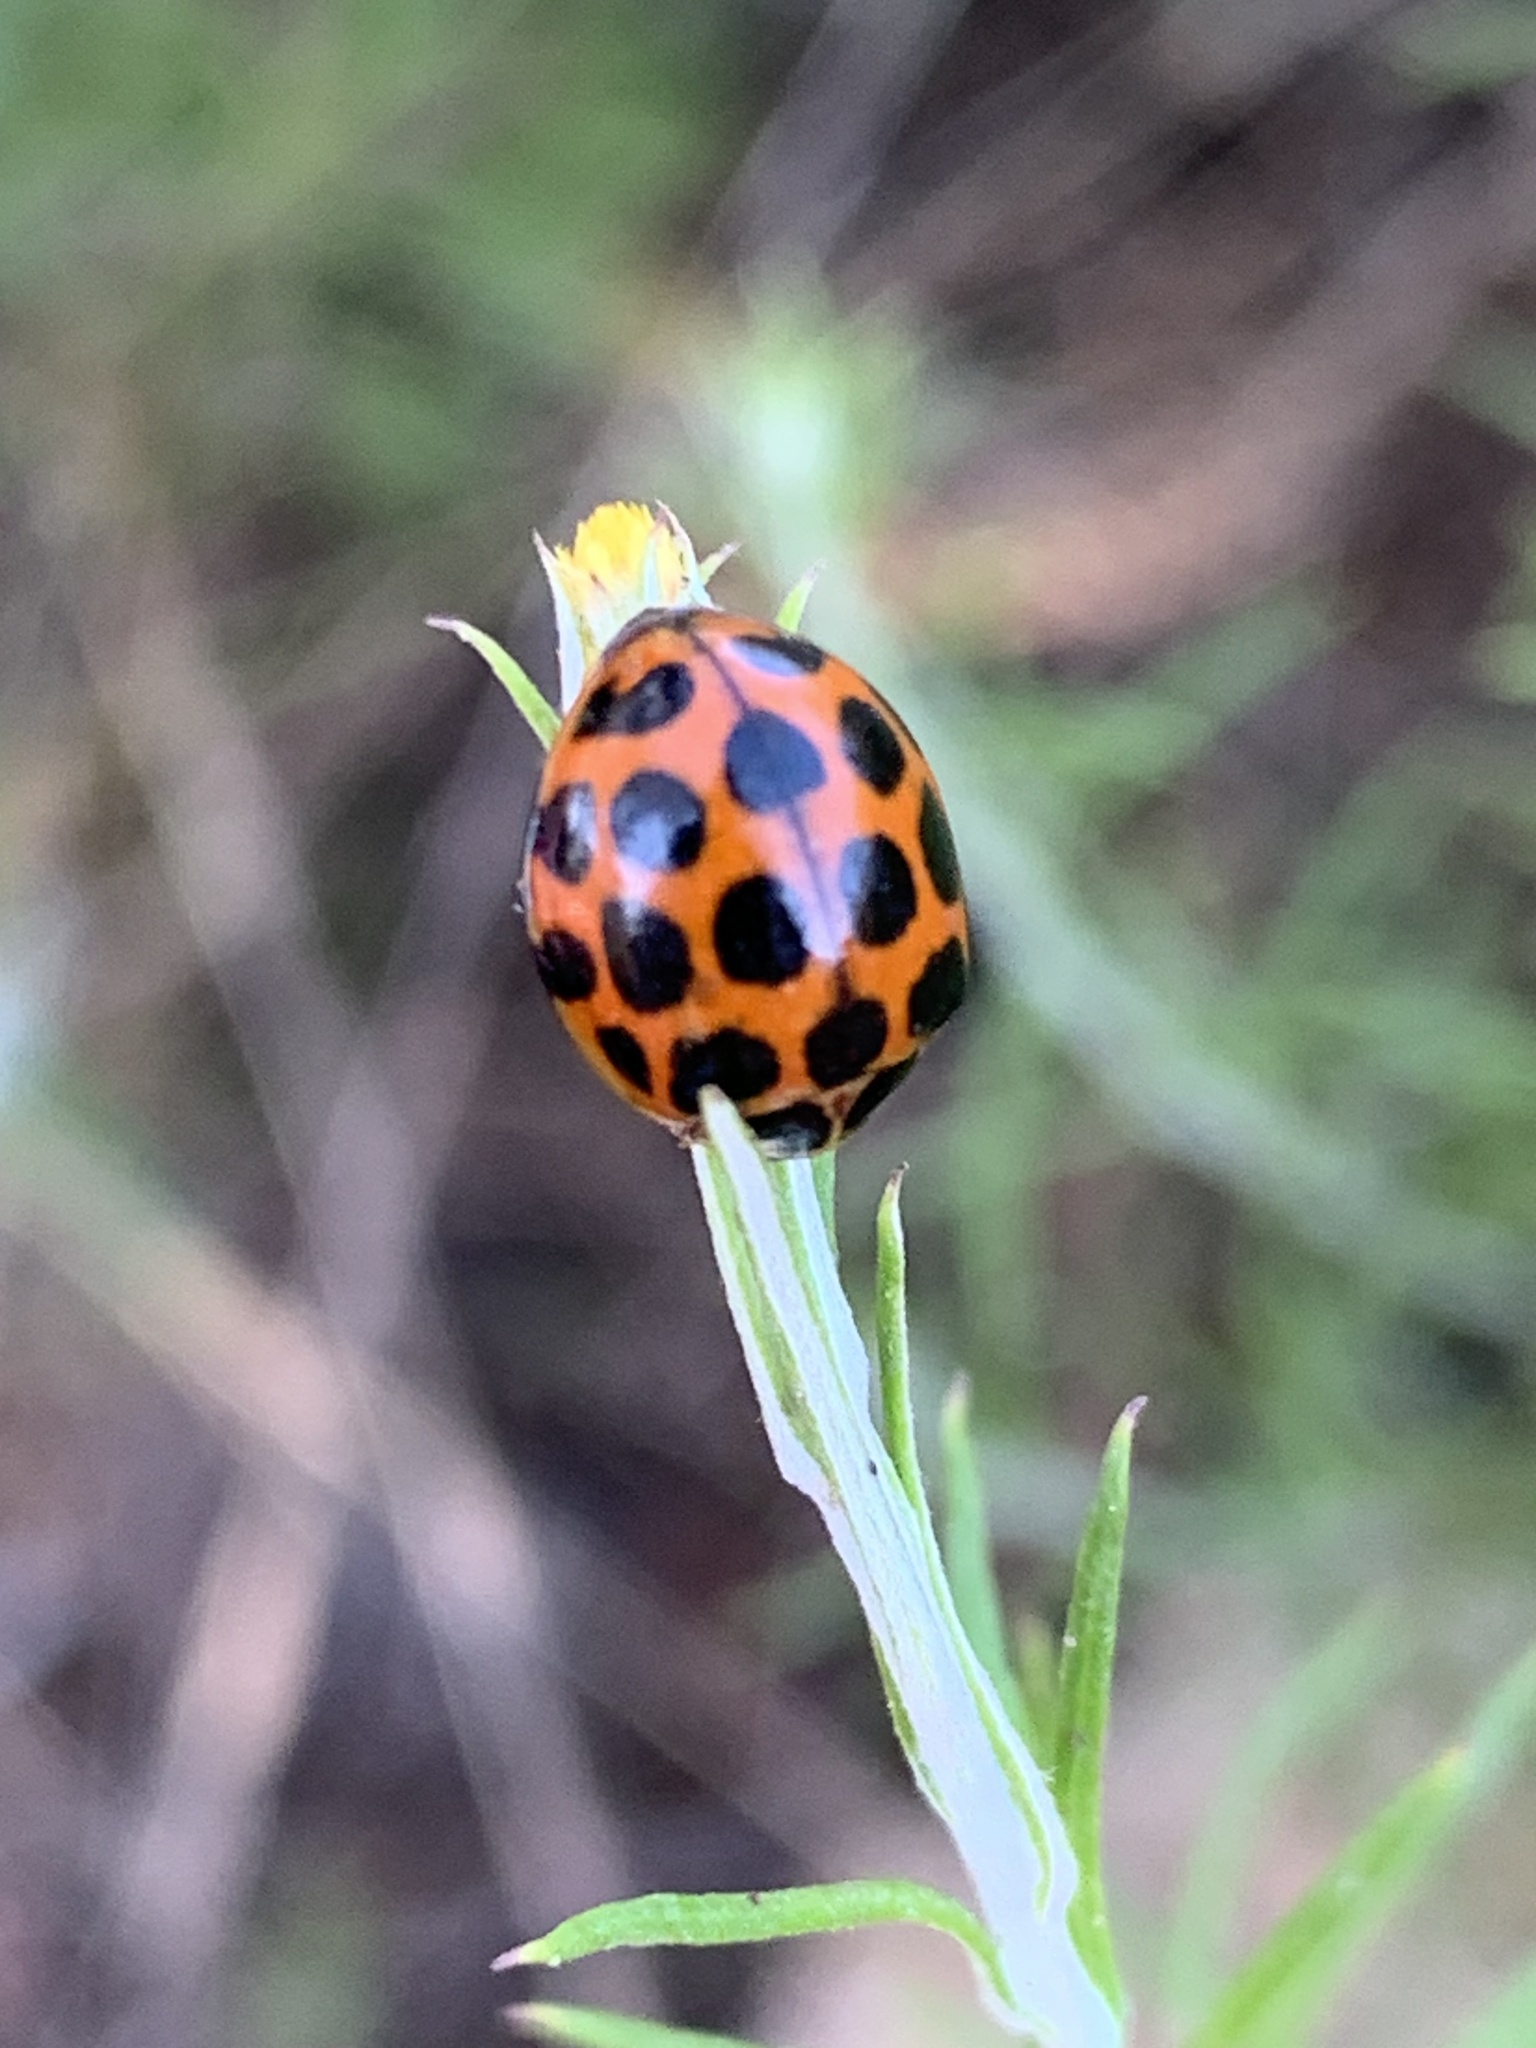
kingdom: Animalia
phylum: Arthropoda
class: Insecta
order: Coleoptera
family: Coccinellidae
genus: Harmonia
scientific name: Harmonia conformis
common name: Common spotted ladybird beetle
